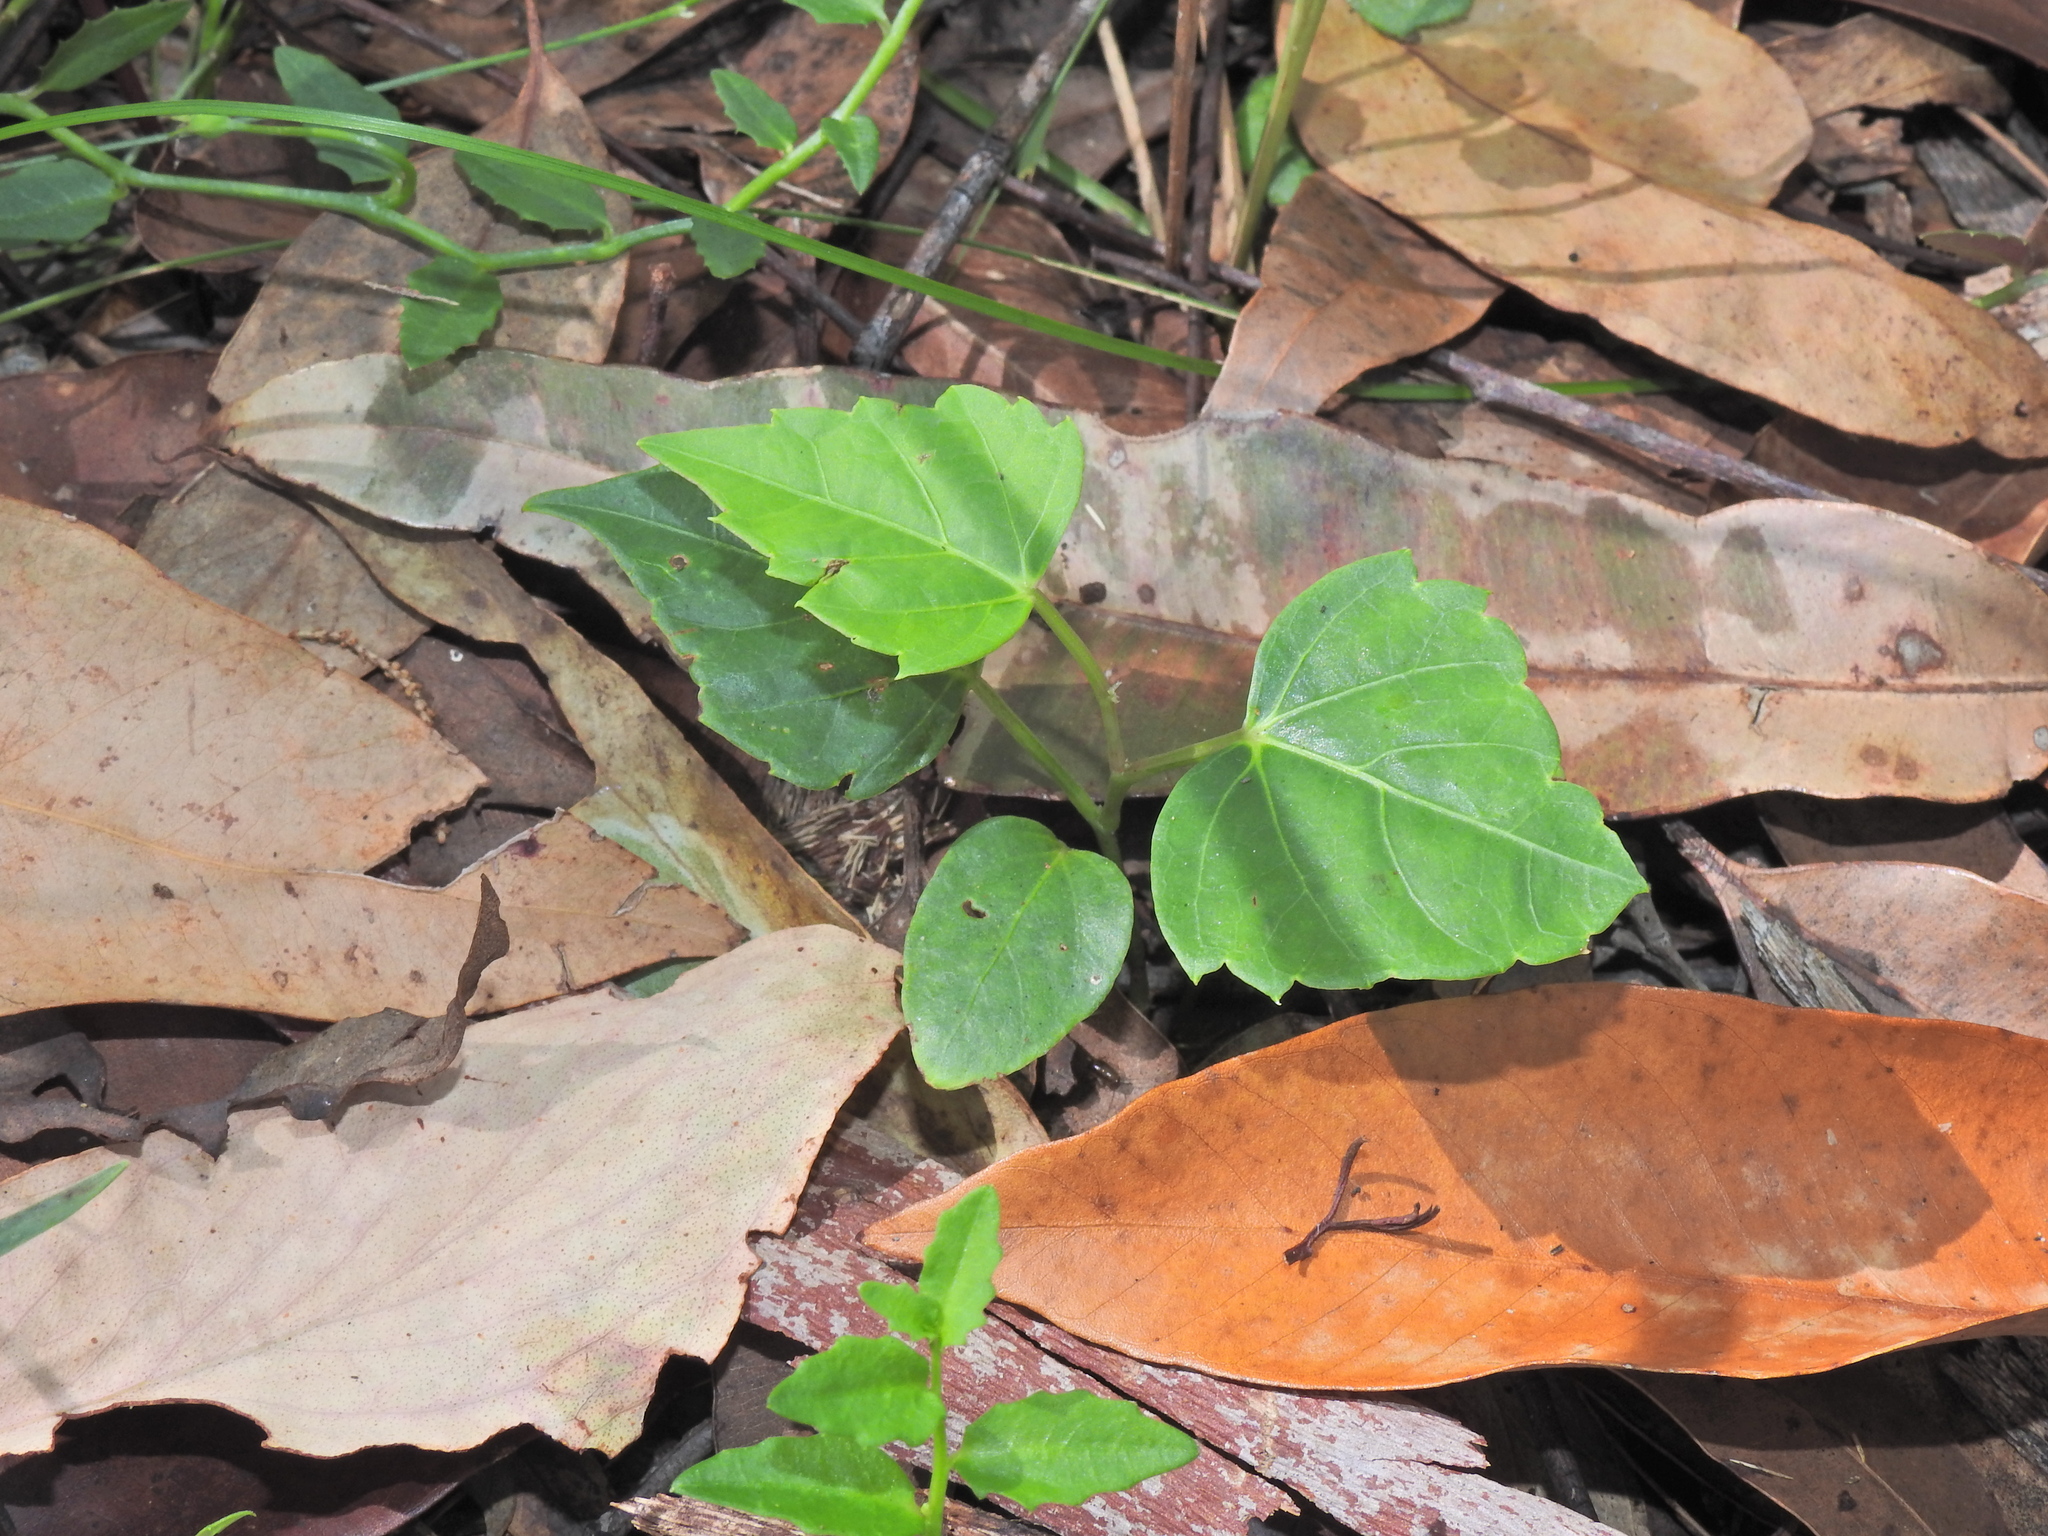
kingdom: Plantae
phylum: Tracheophyta
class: Magnoliopsida
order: Vitales
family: Vitaceae
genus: Clematicissus
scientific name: Clematicissus opaca
